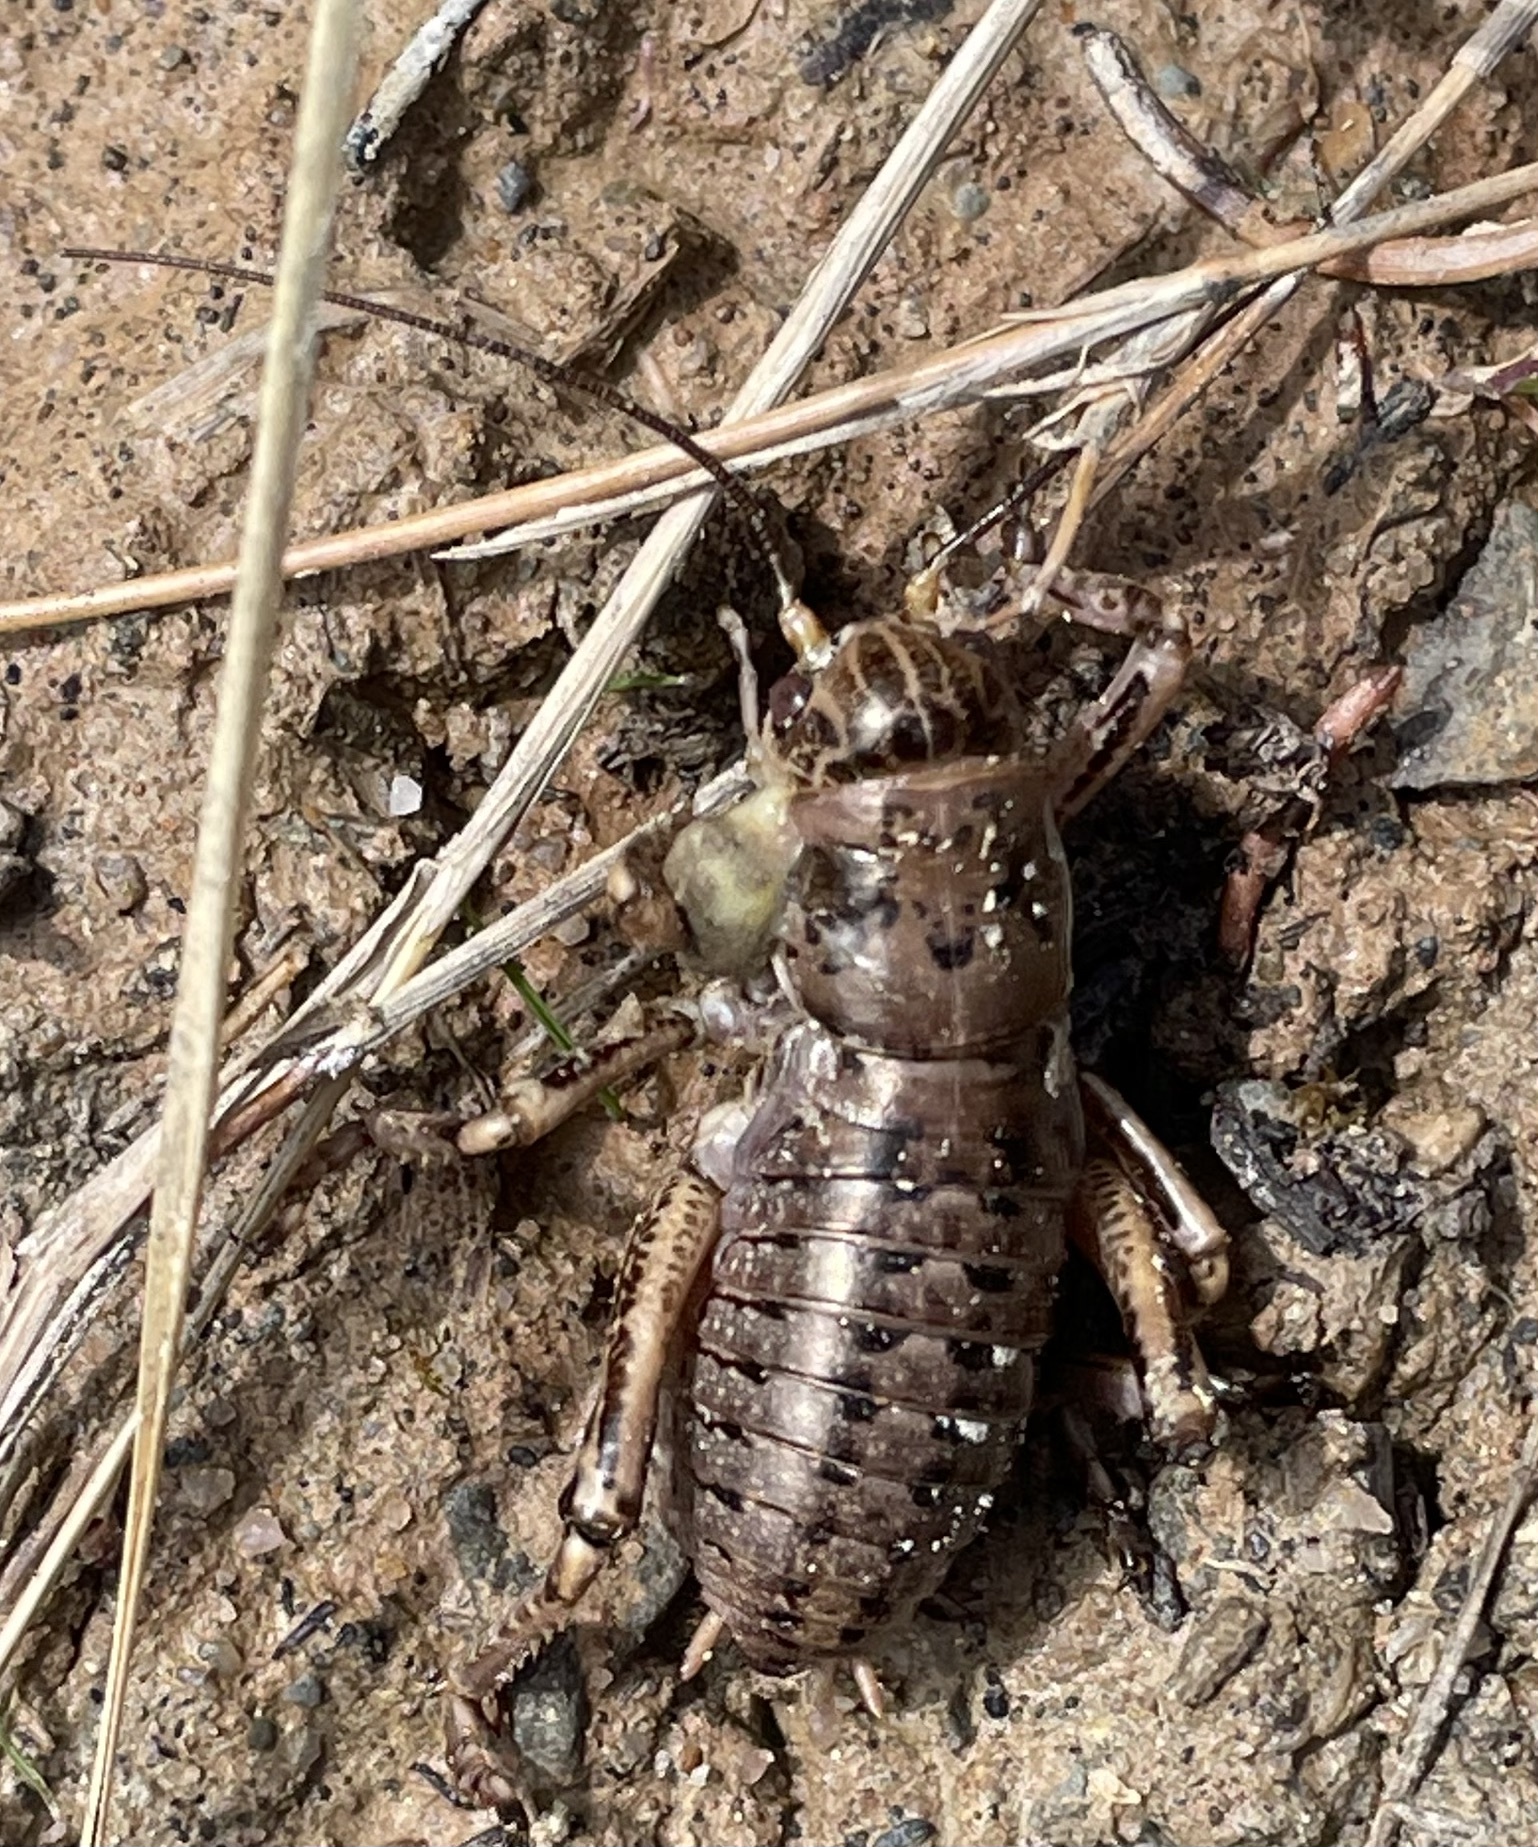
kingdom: Animalia
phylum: Arthropoda
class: Insecta
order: Orthoptera
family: Prophalangopsidae
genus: Cyphoderris
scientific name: Cyphoderris monstrosa
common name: Great grig
